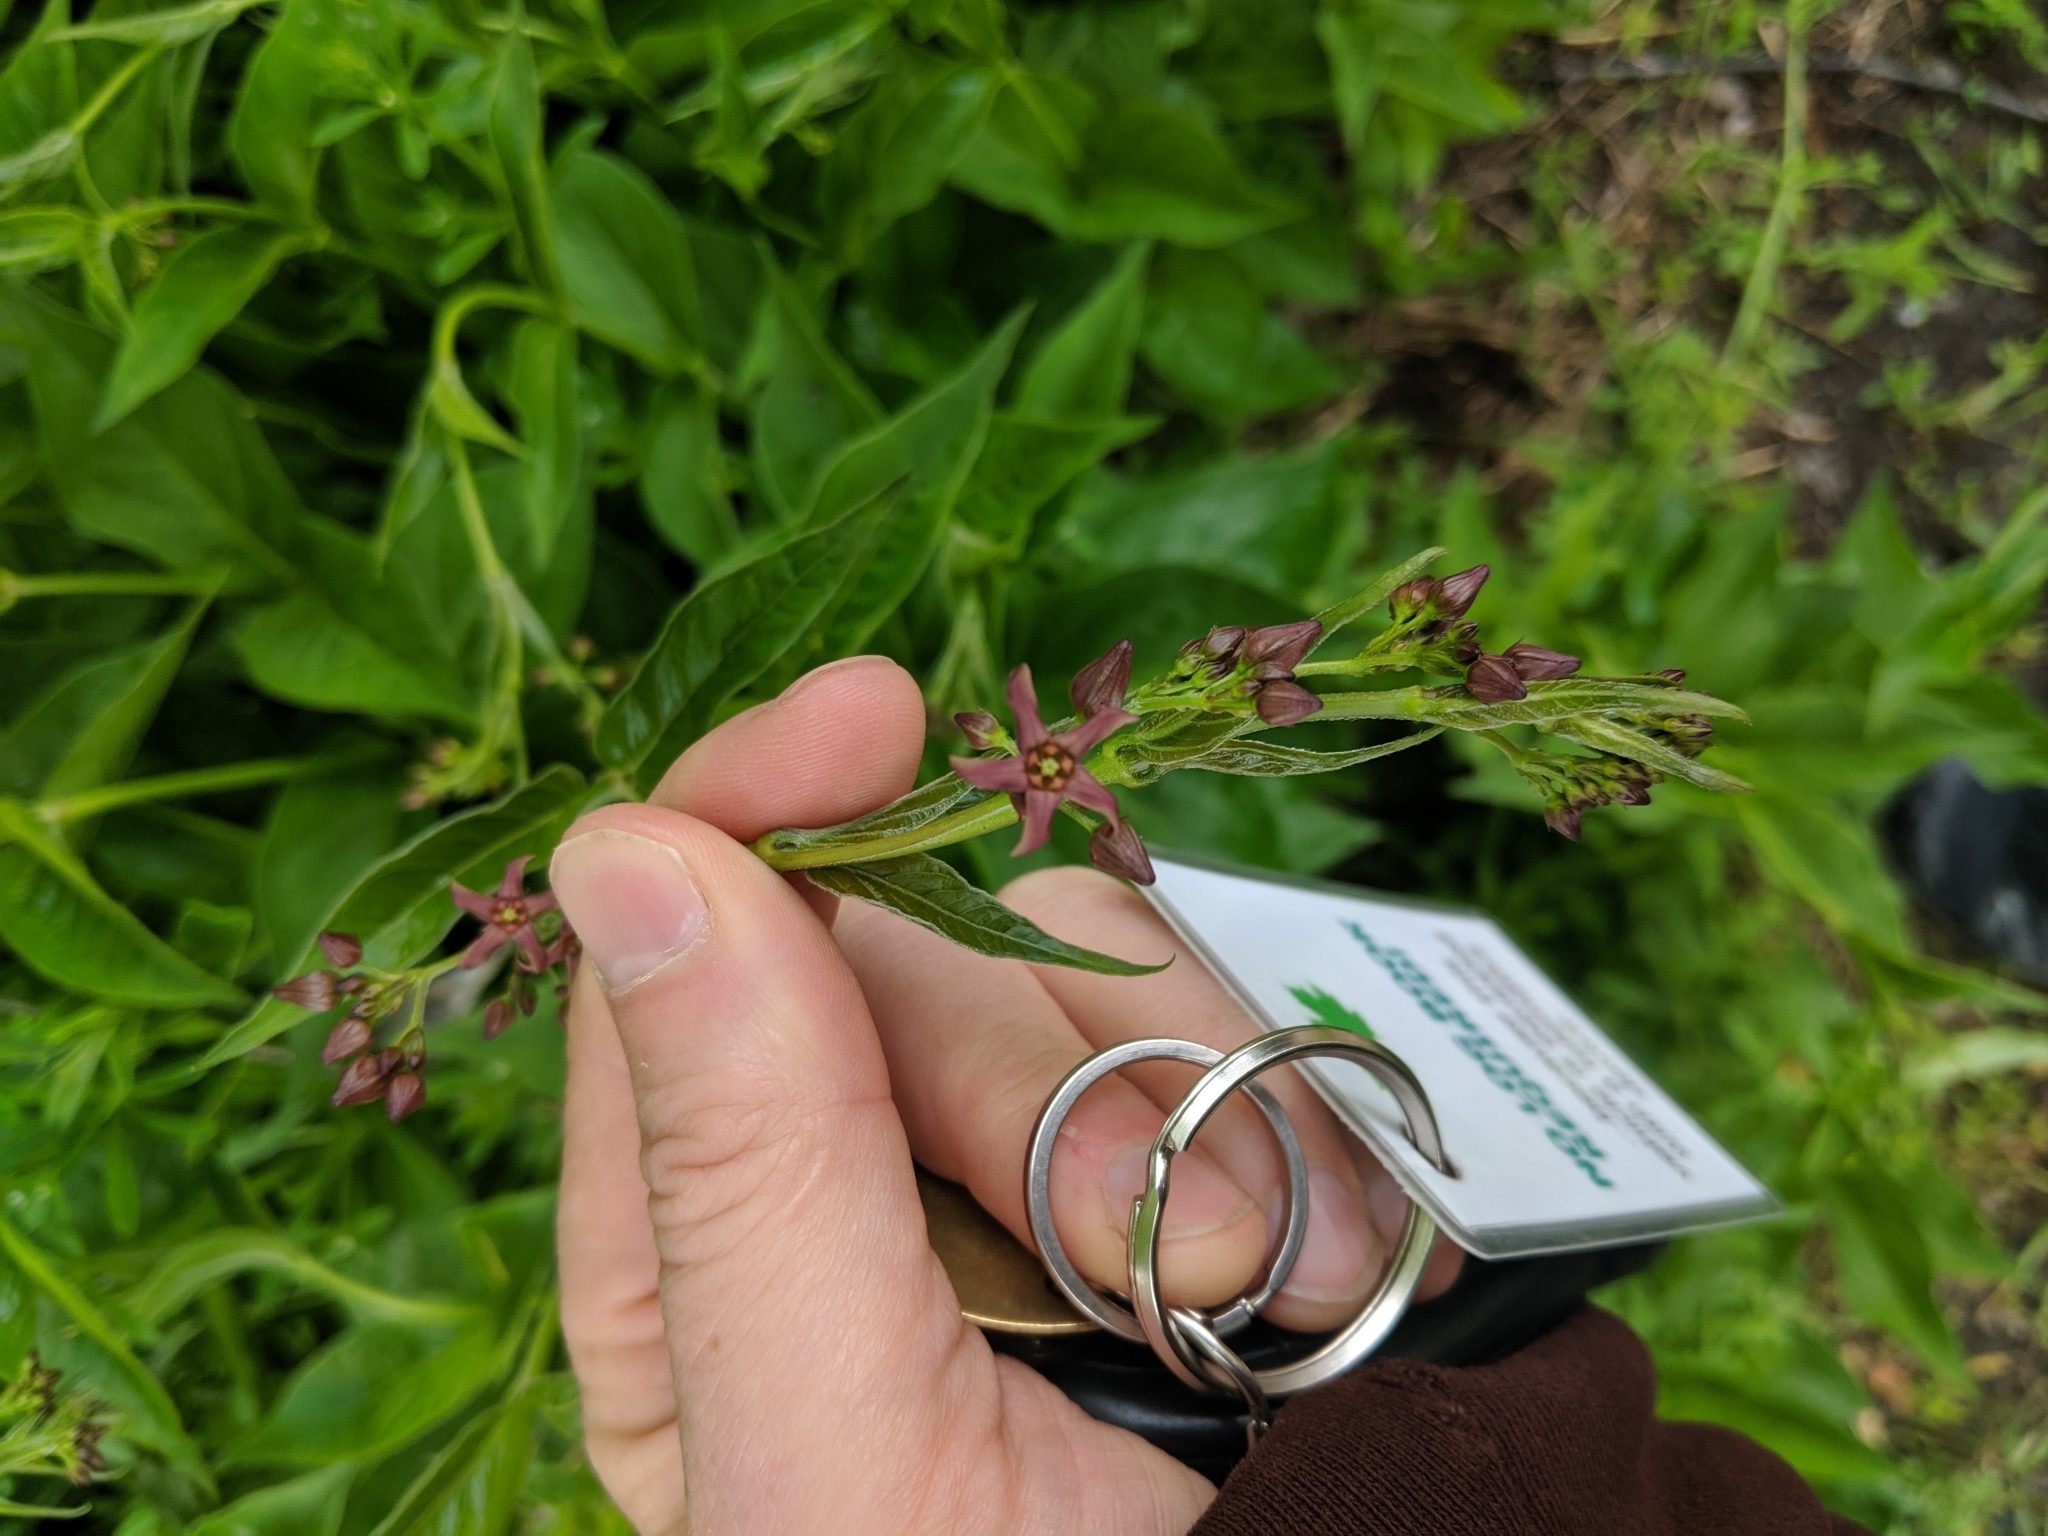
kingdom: Plantae
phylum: Tracheophyta
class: Magnoliopsida
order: Gentianales
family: Apocynaceae
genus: Vincetoxicum
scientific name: Vincetoxicum rossicum
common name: Dog-strangling vine
